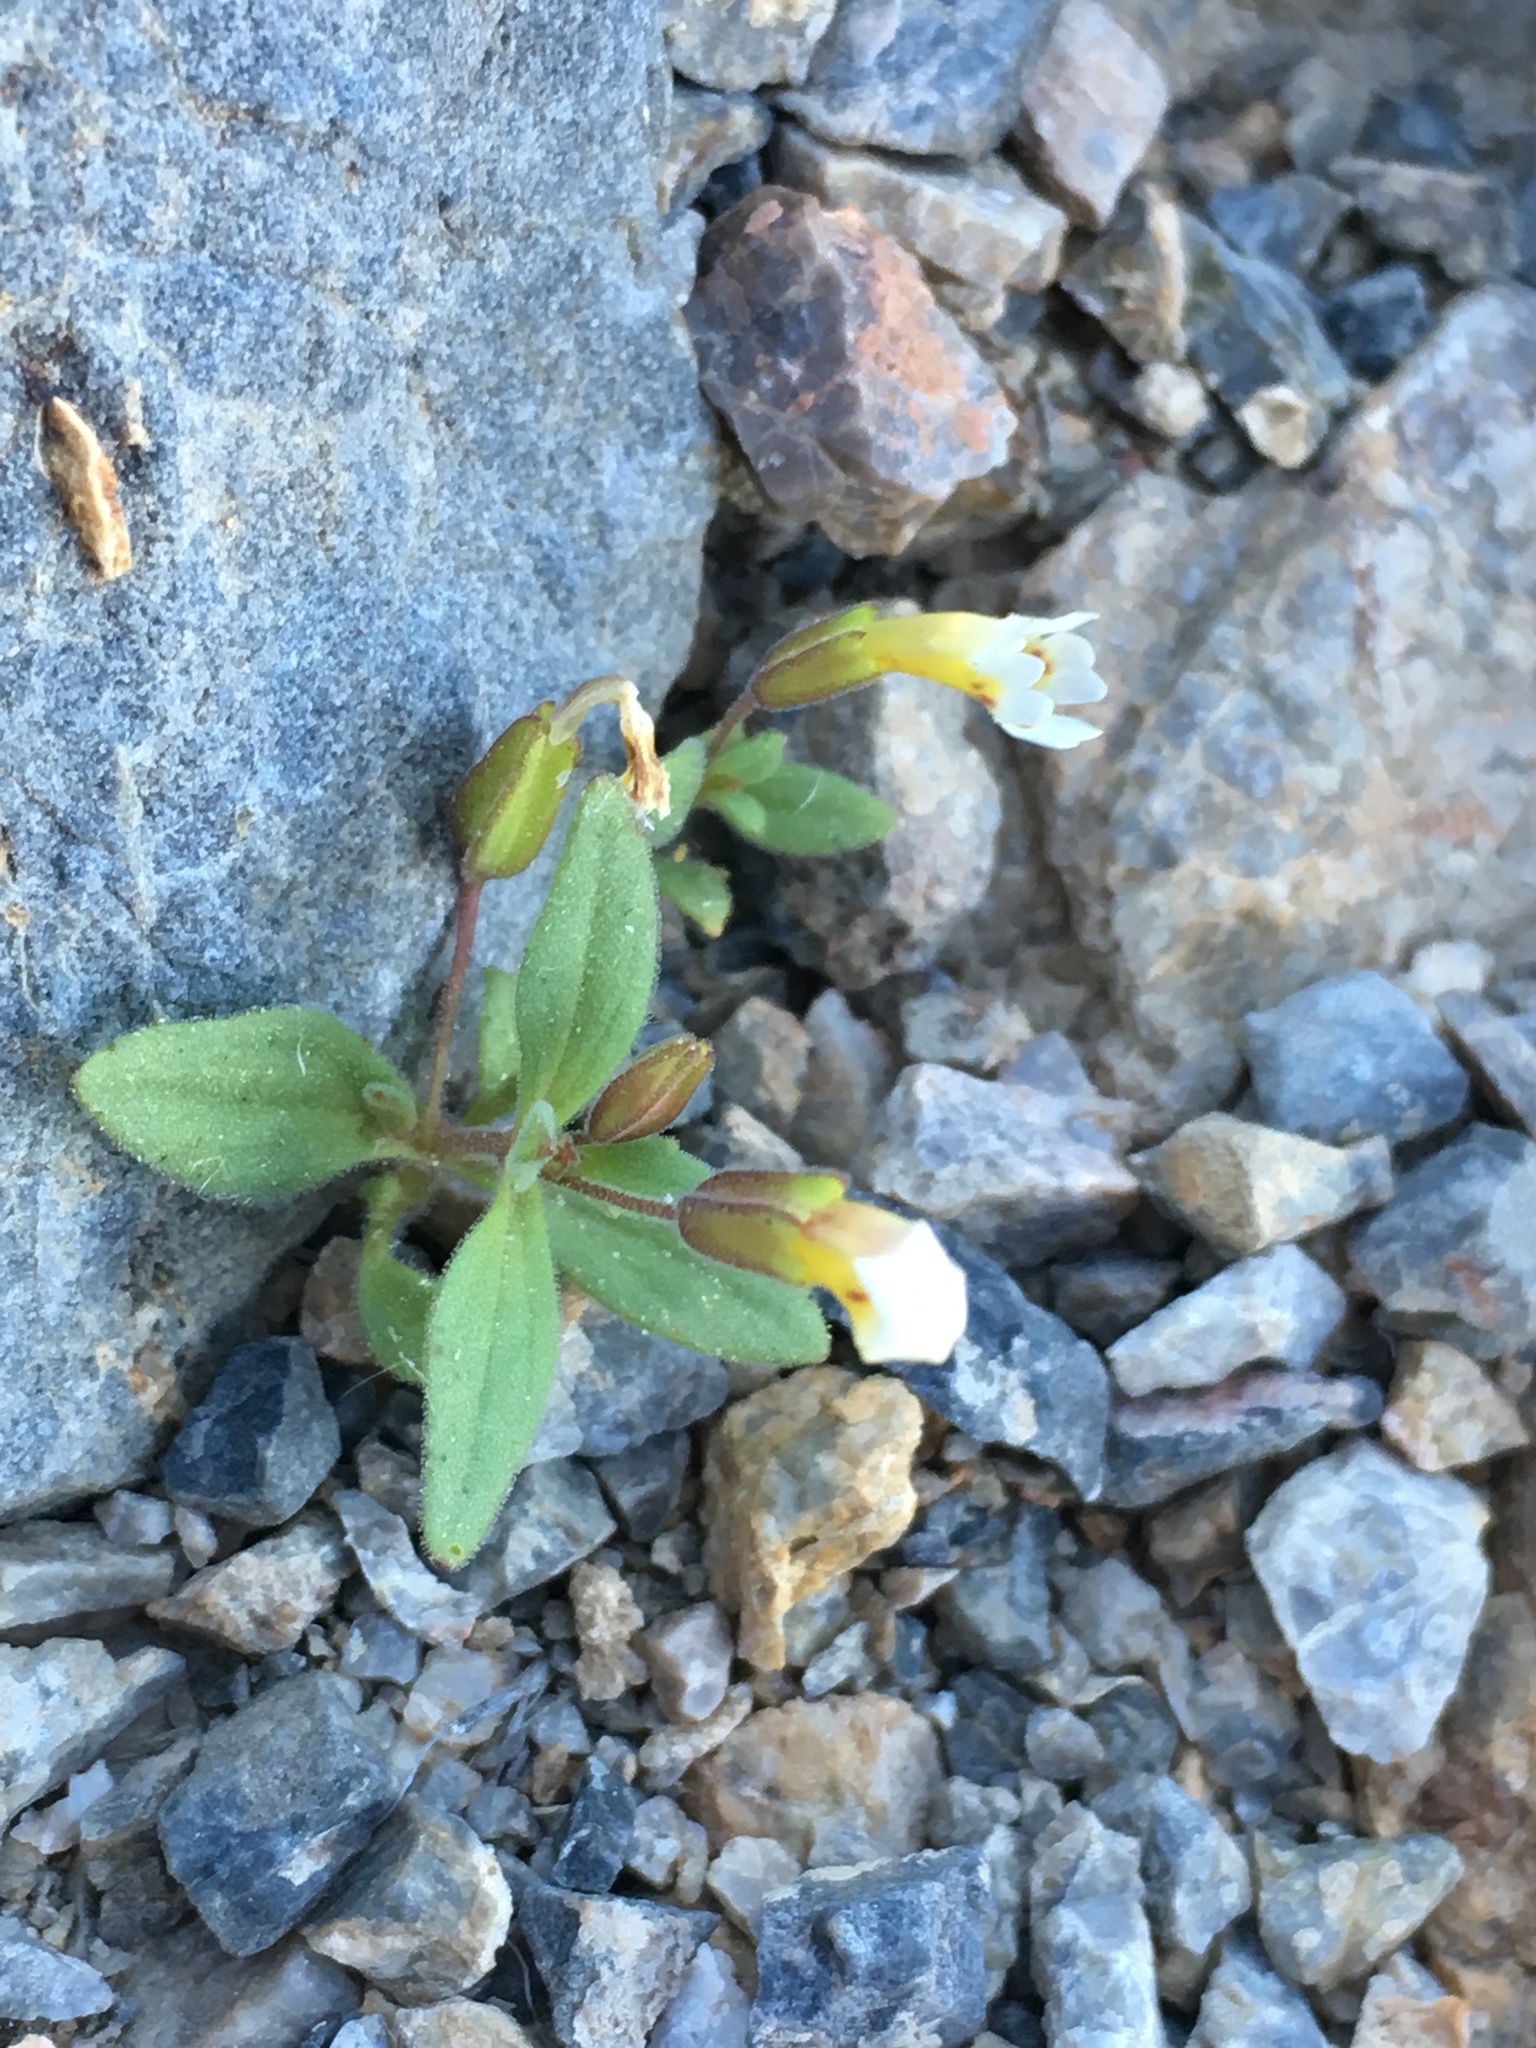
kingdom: Plantae
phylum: Tracheophyta
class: Magnoliopsida
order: Lamiales
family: Phrymaceae
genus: Erythranthe
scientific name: Erythranthe calcicola
